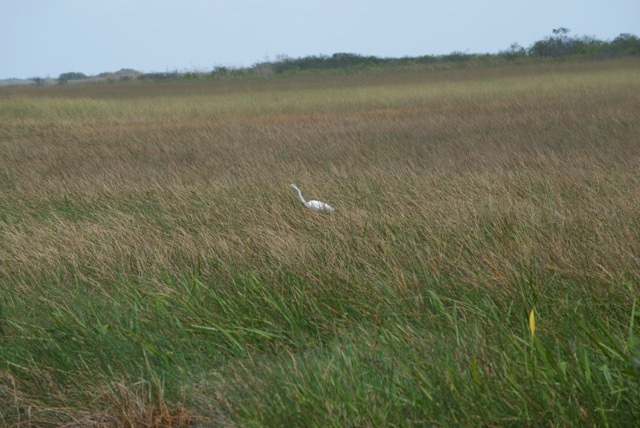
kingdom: Animalia
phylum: Chordata
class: Aves
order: Pelecaniformes
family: Ardeidae
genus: Ardea
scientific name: Ardea alba
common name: Great egret
